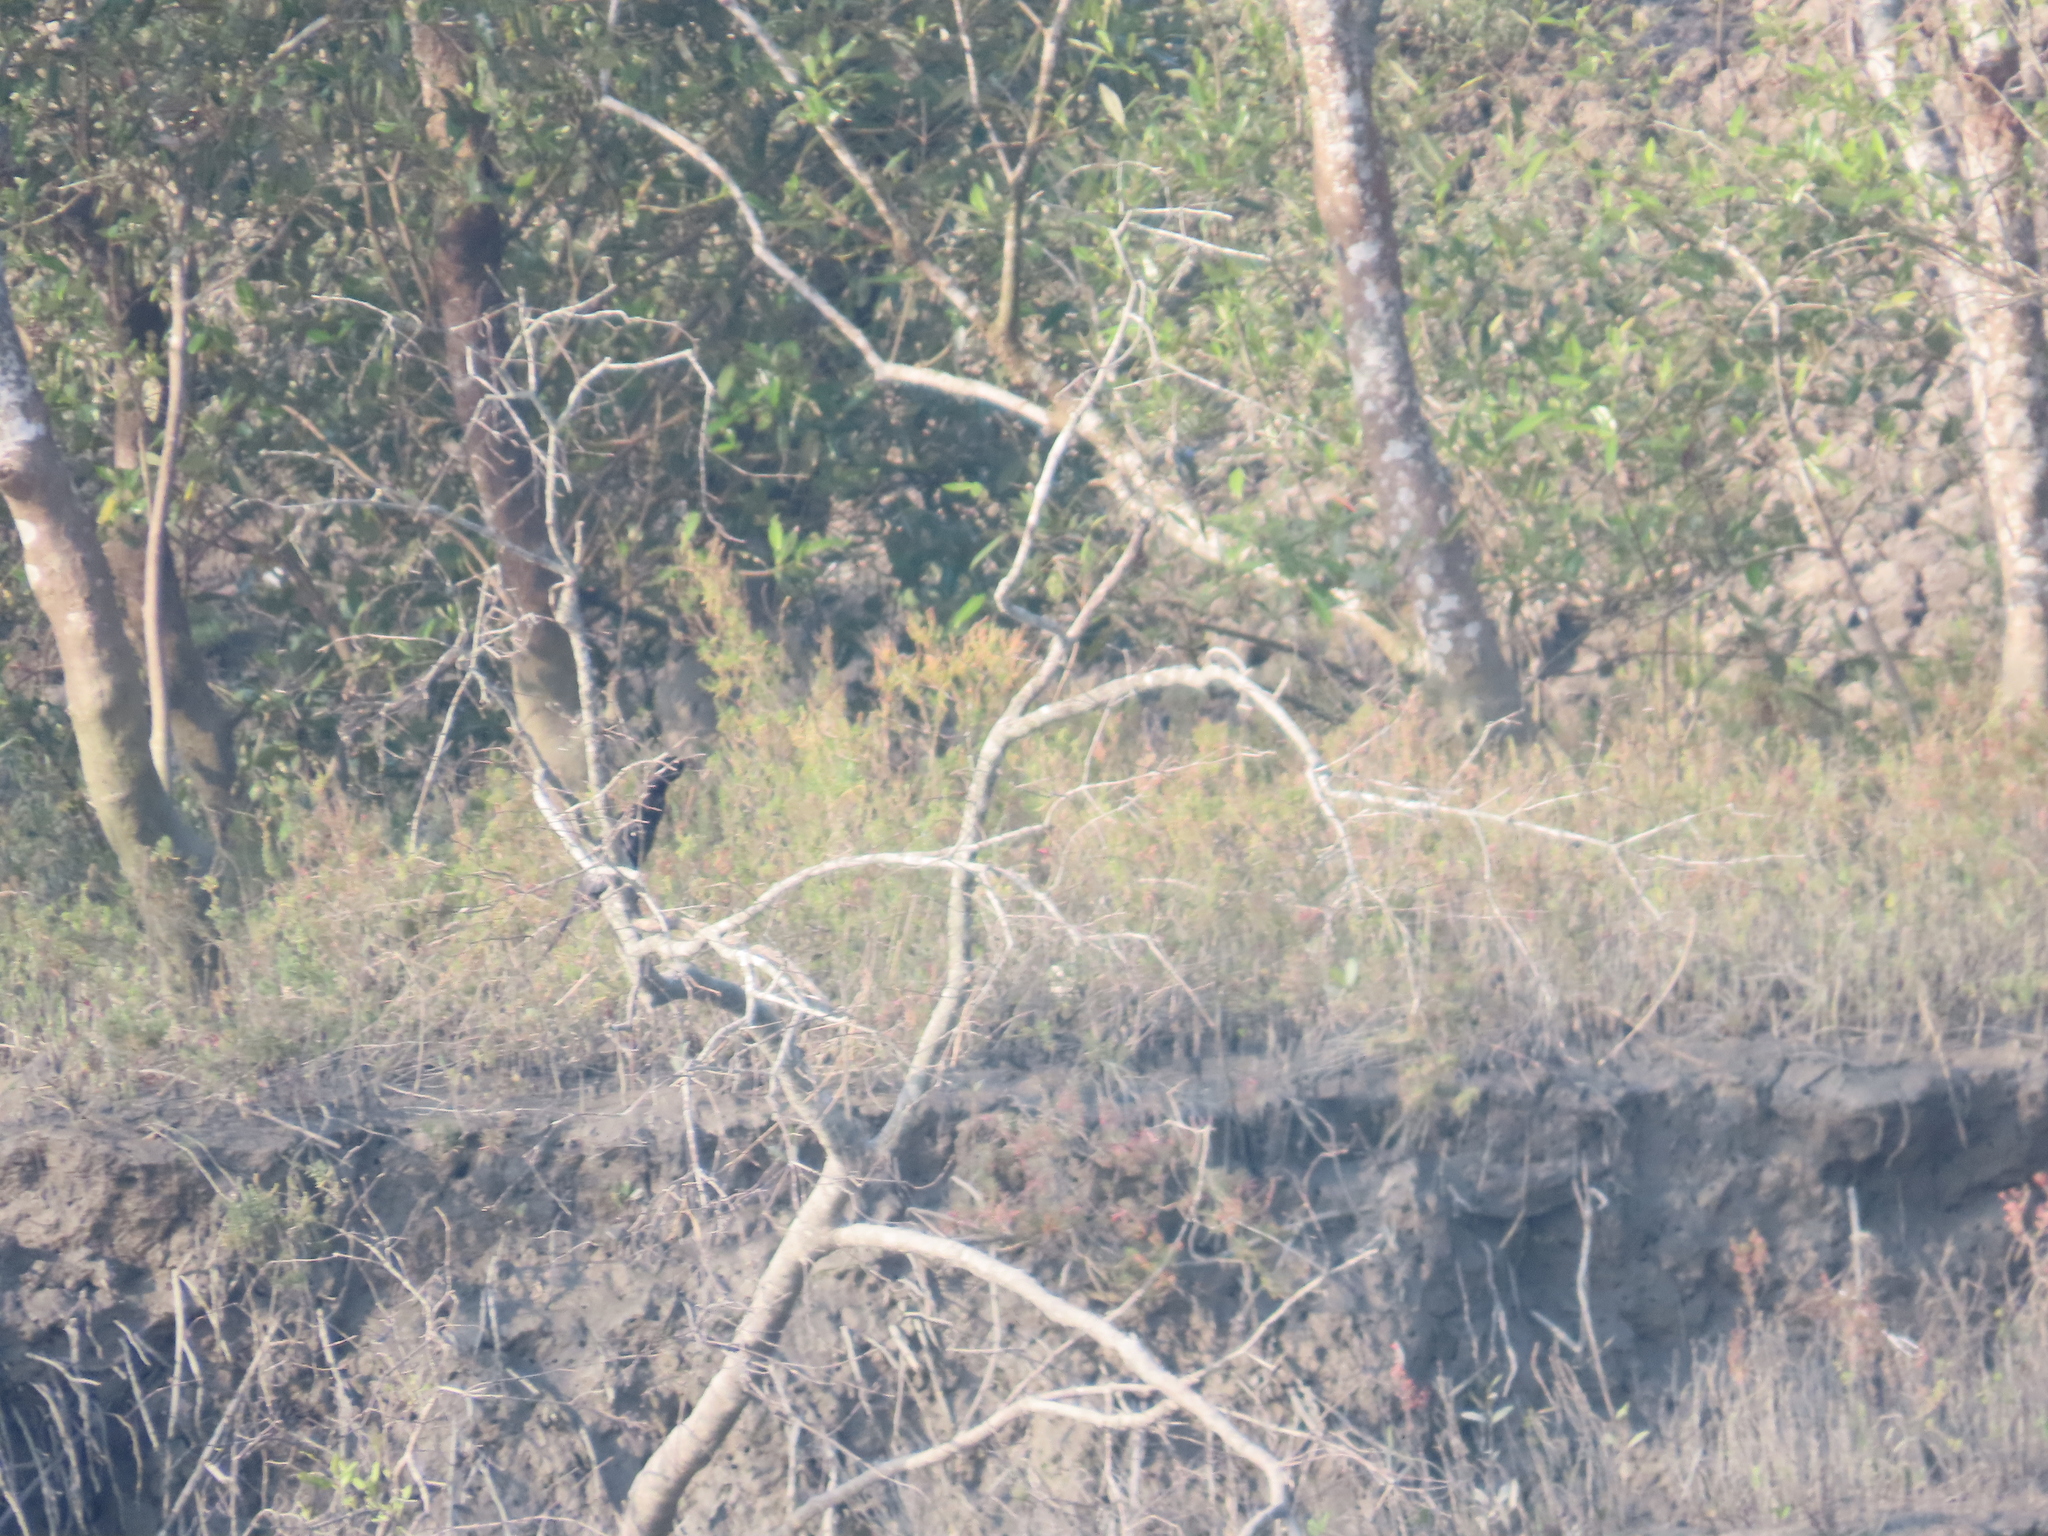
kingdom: Animalia
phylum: Chordata
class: Aves
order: Suliformes
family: Phalacrocoracidae
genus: Microcarbo
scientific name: Microcarbo niger
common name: Little cormorant
